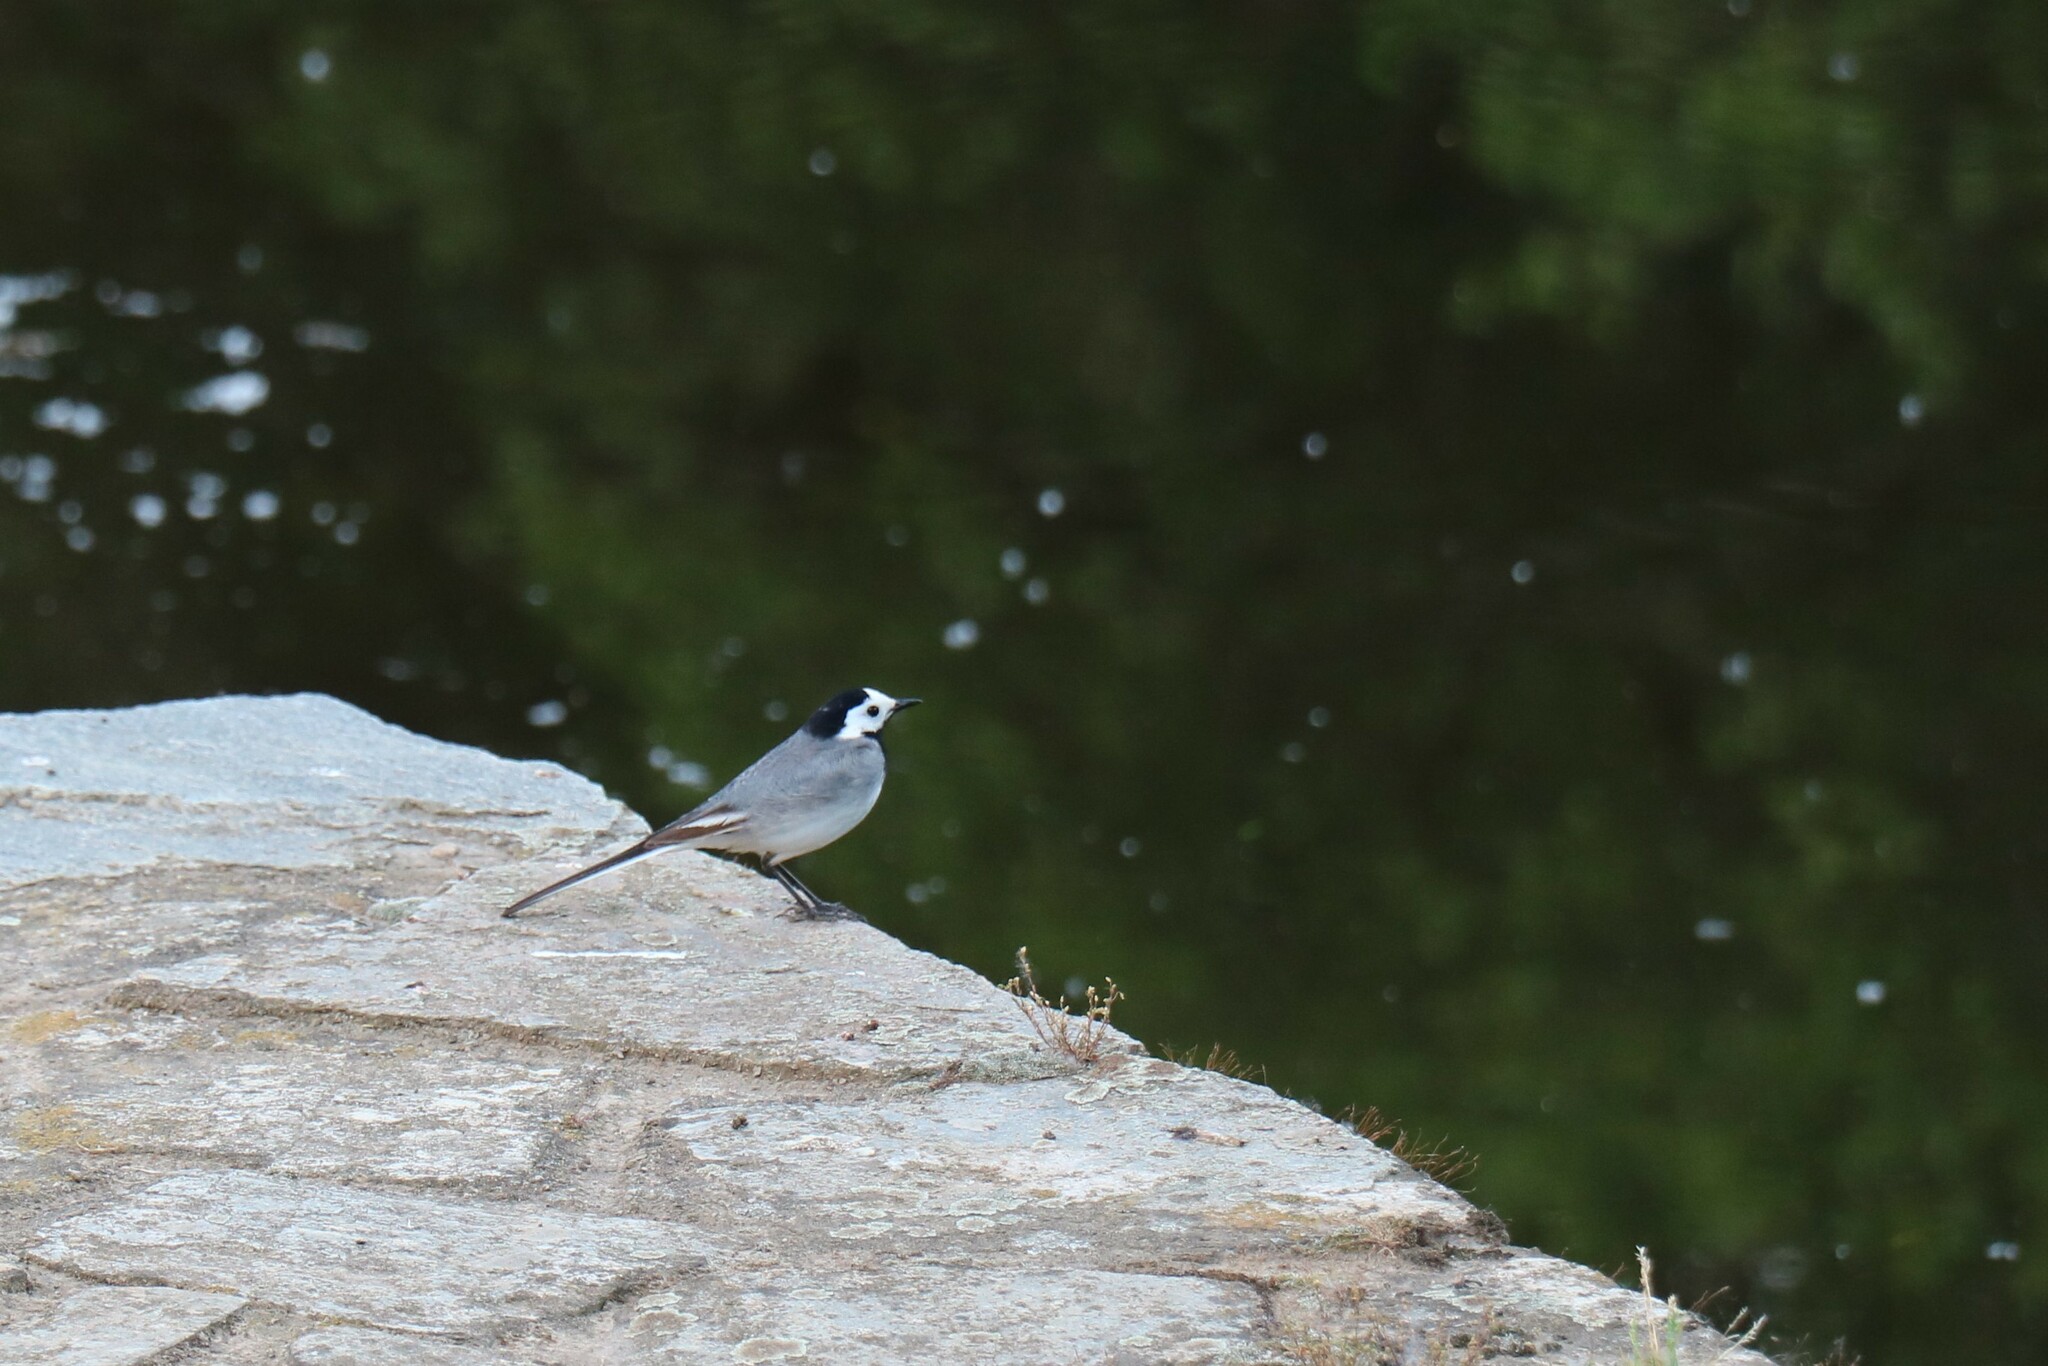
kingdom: Animalia
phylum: Chordata
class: Aves
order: Passeriformes
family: Motacillidae
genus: Motacilla
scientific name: Motacilla alba
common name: White wagtail
